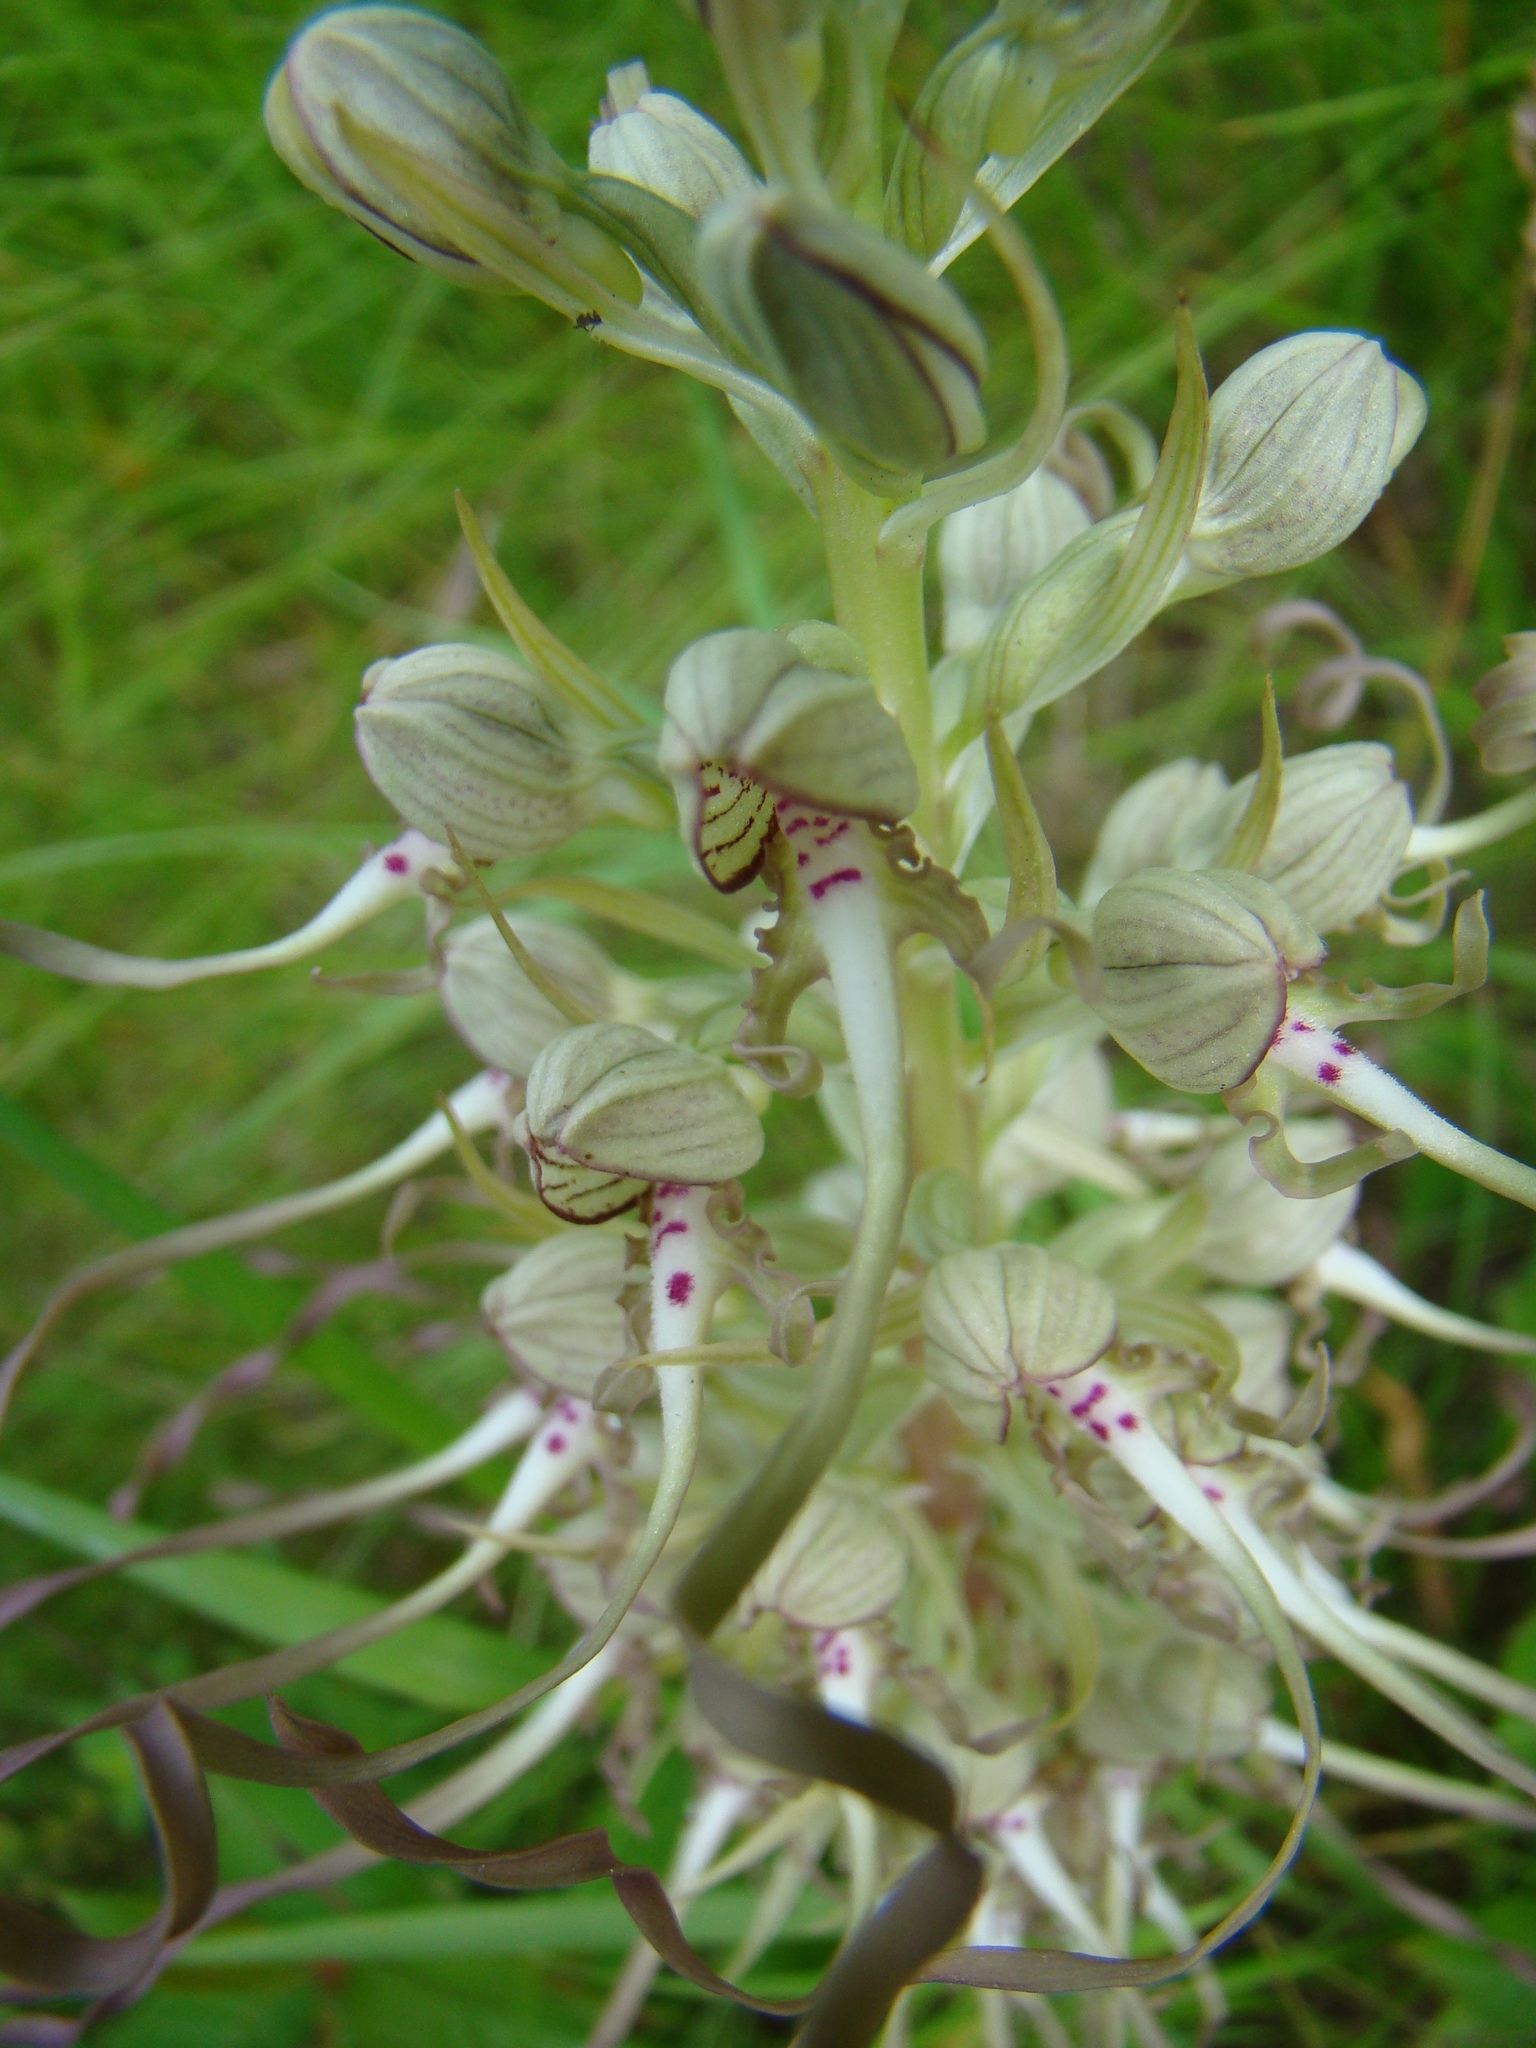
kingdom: Plantae
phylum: Tracheophyta
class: Liliopsida
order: Asparagales
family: Orchidaceae
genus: Himantoglossum
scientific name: Himantoglossum hircinum
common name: Lizard orchid
